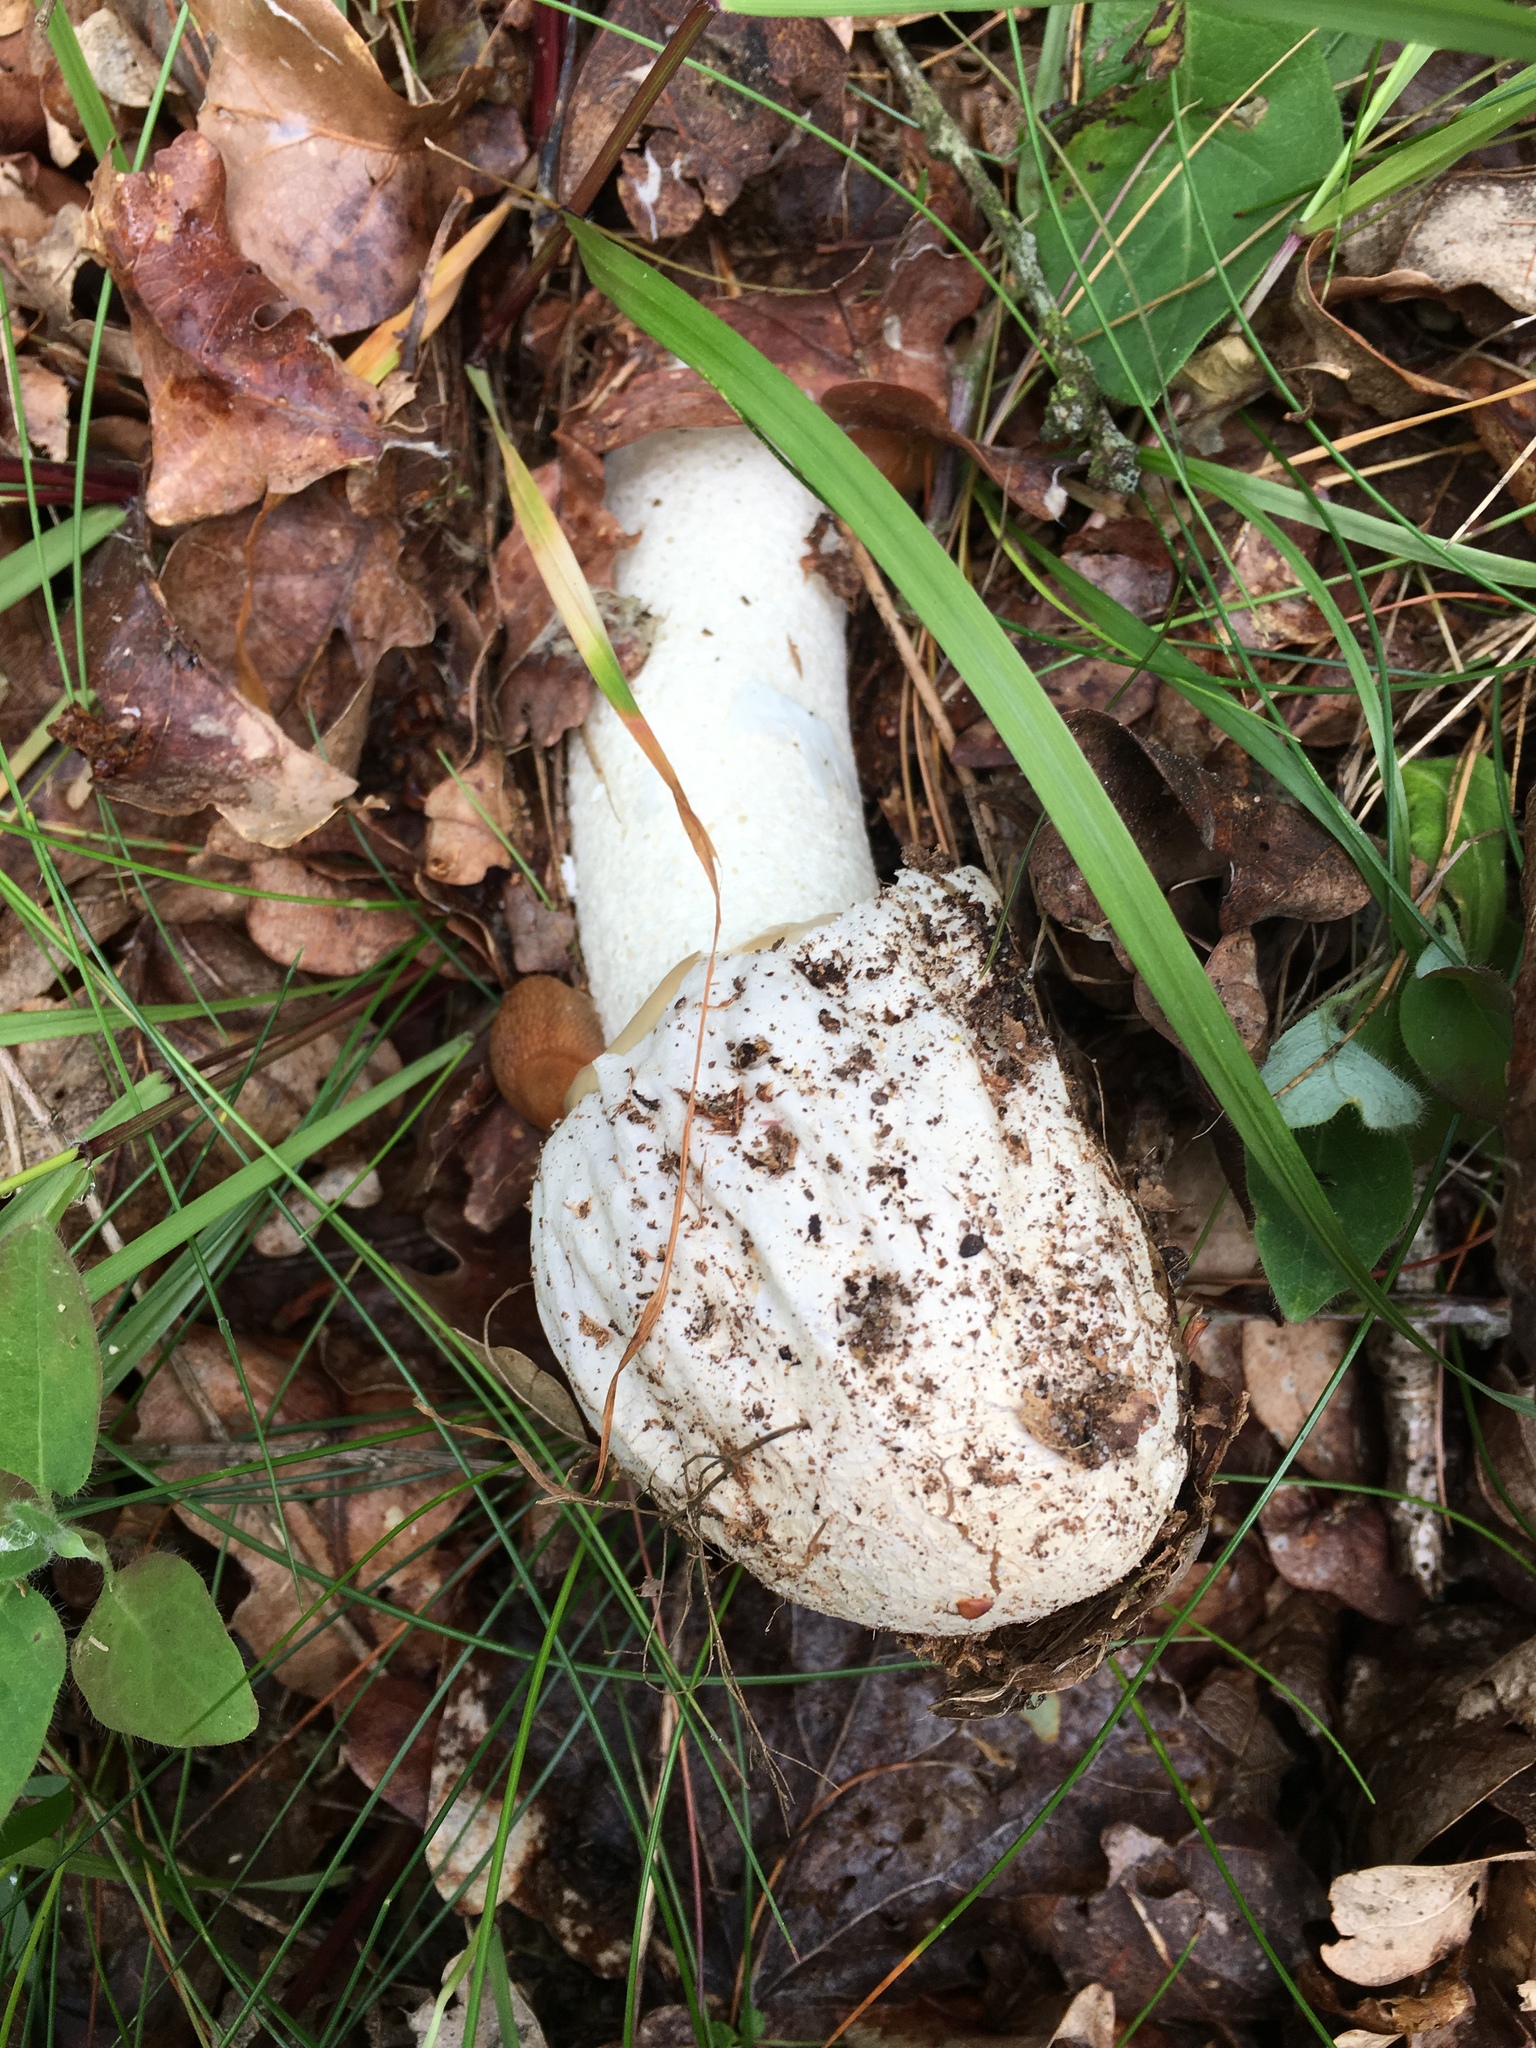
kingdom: Fungi
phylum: Basidiomycota
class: Agaricomycetes
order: Phallales
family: Phallaceae
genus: Phallus
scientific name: Phallus impudicus
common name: Common stinkhorn
